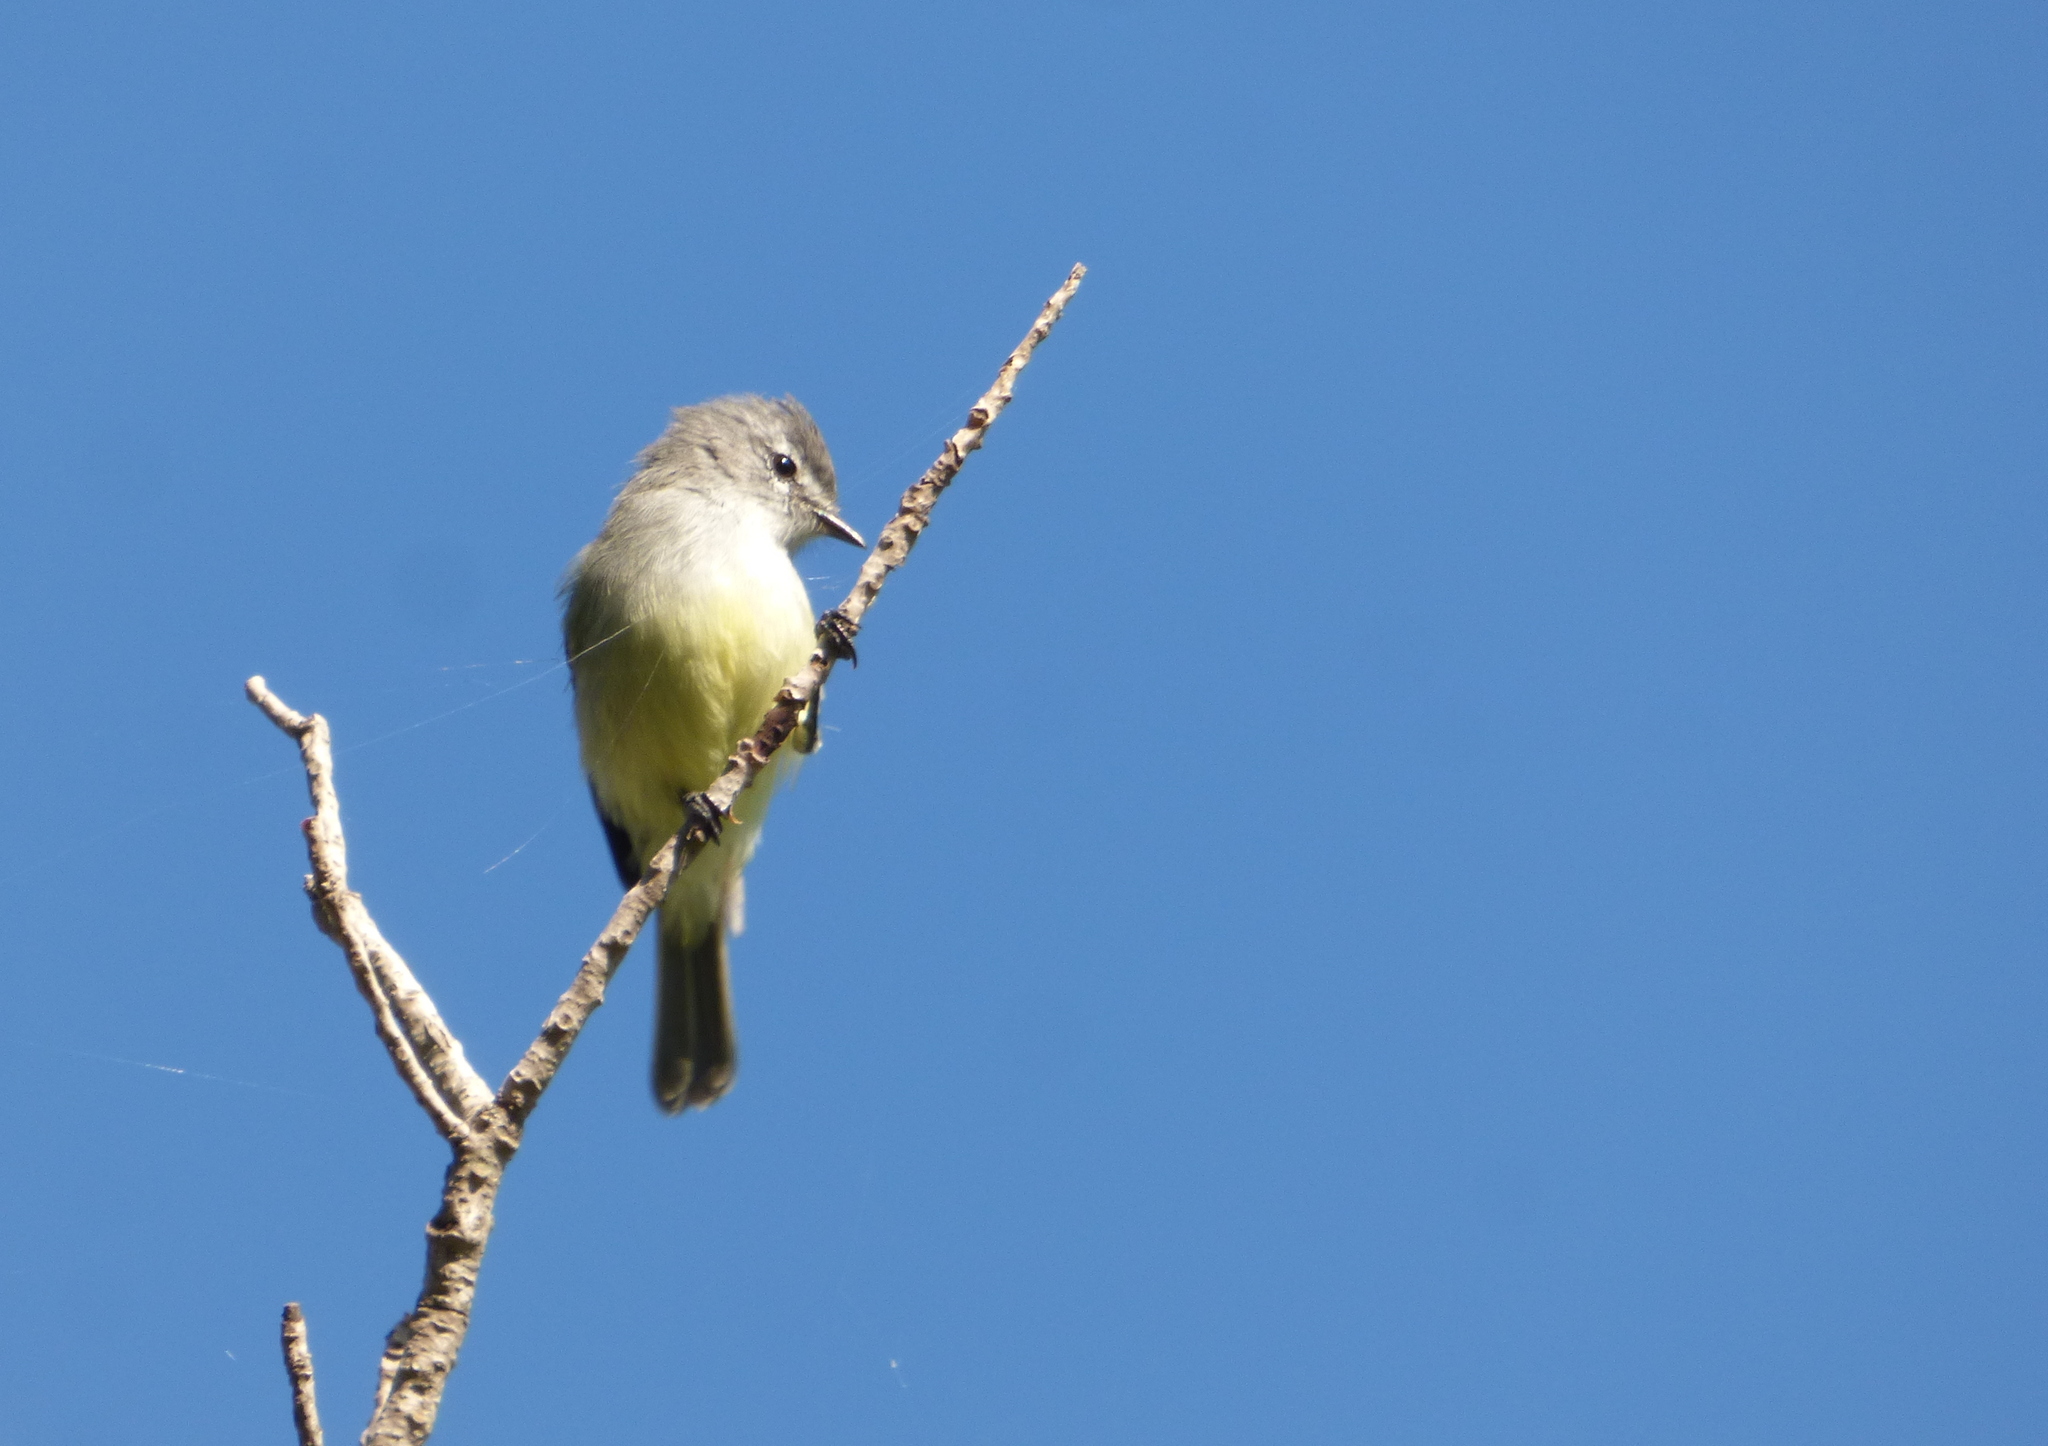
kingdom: Animalia
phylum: Chordata
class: Aves
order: Passeriformes
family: Tyrannidae
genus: Serpophaga
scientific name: Serpophaga subcristata
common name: White-crested tyrannulet
